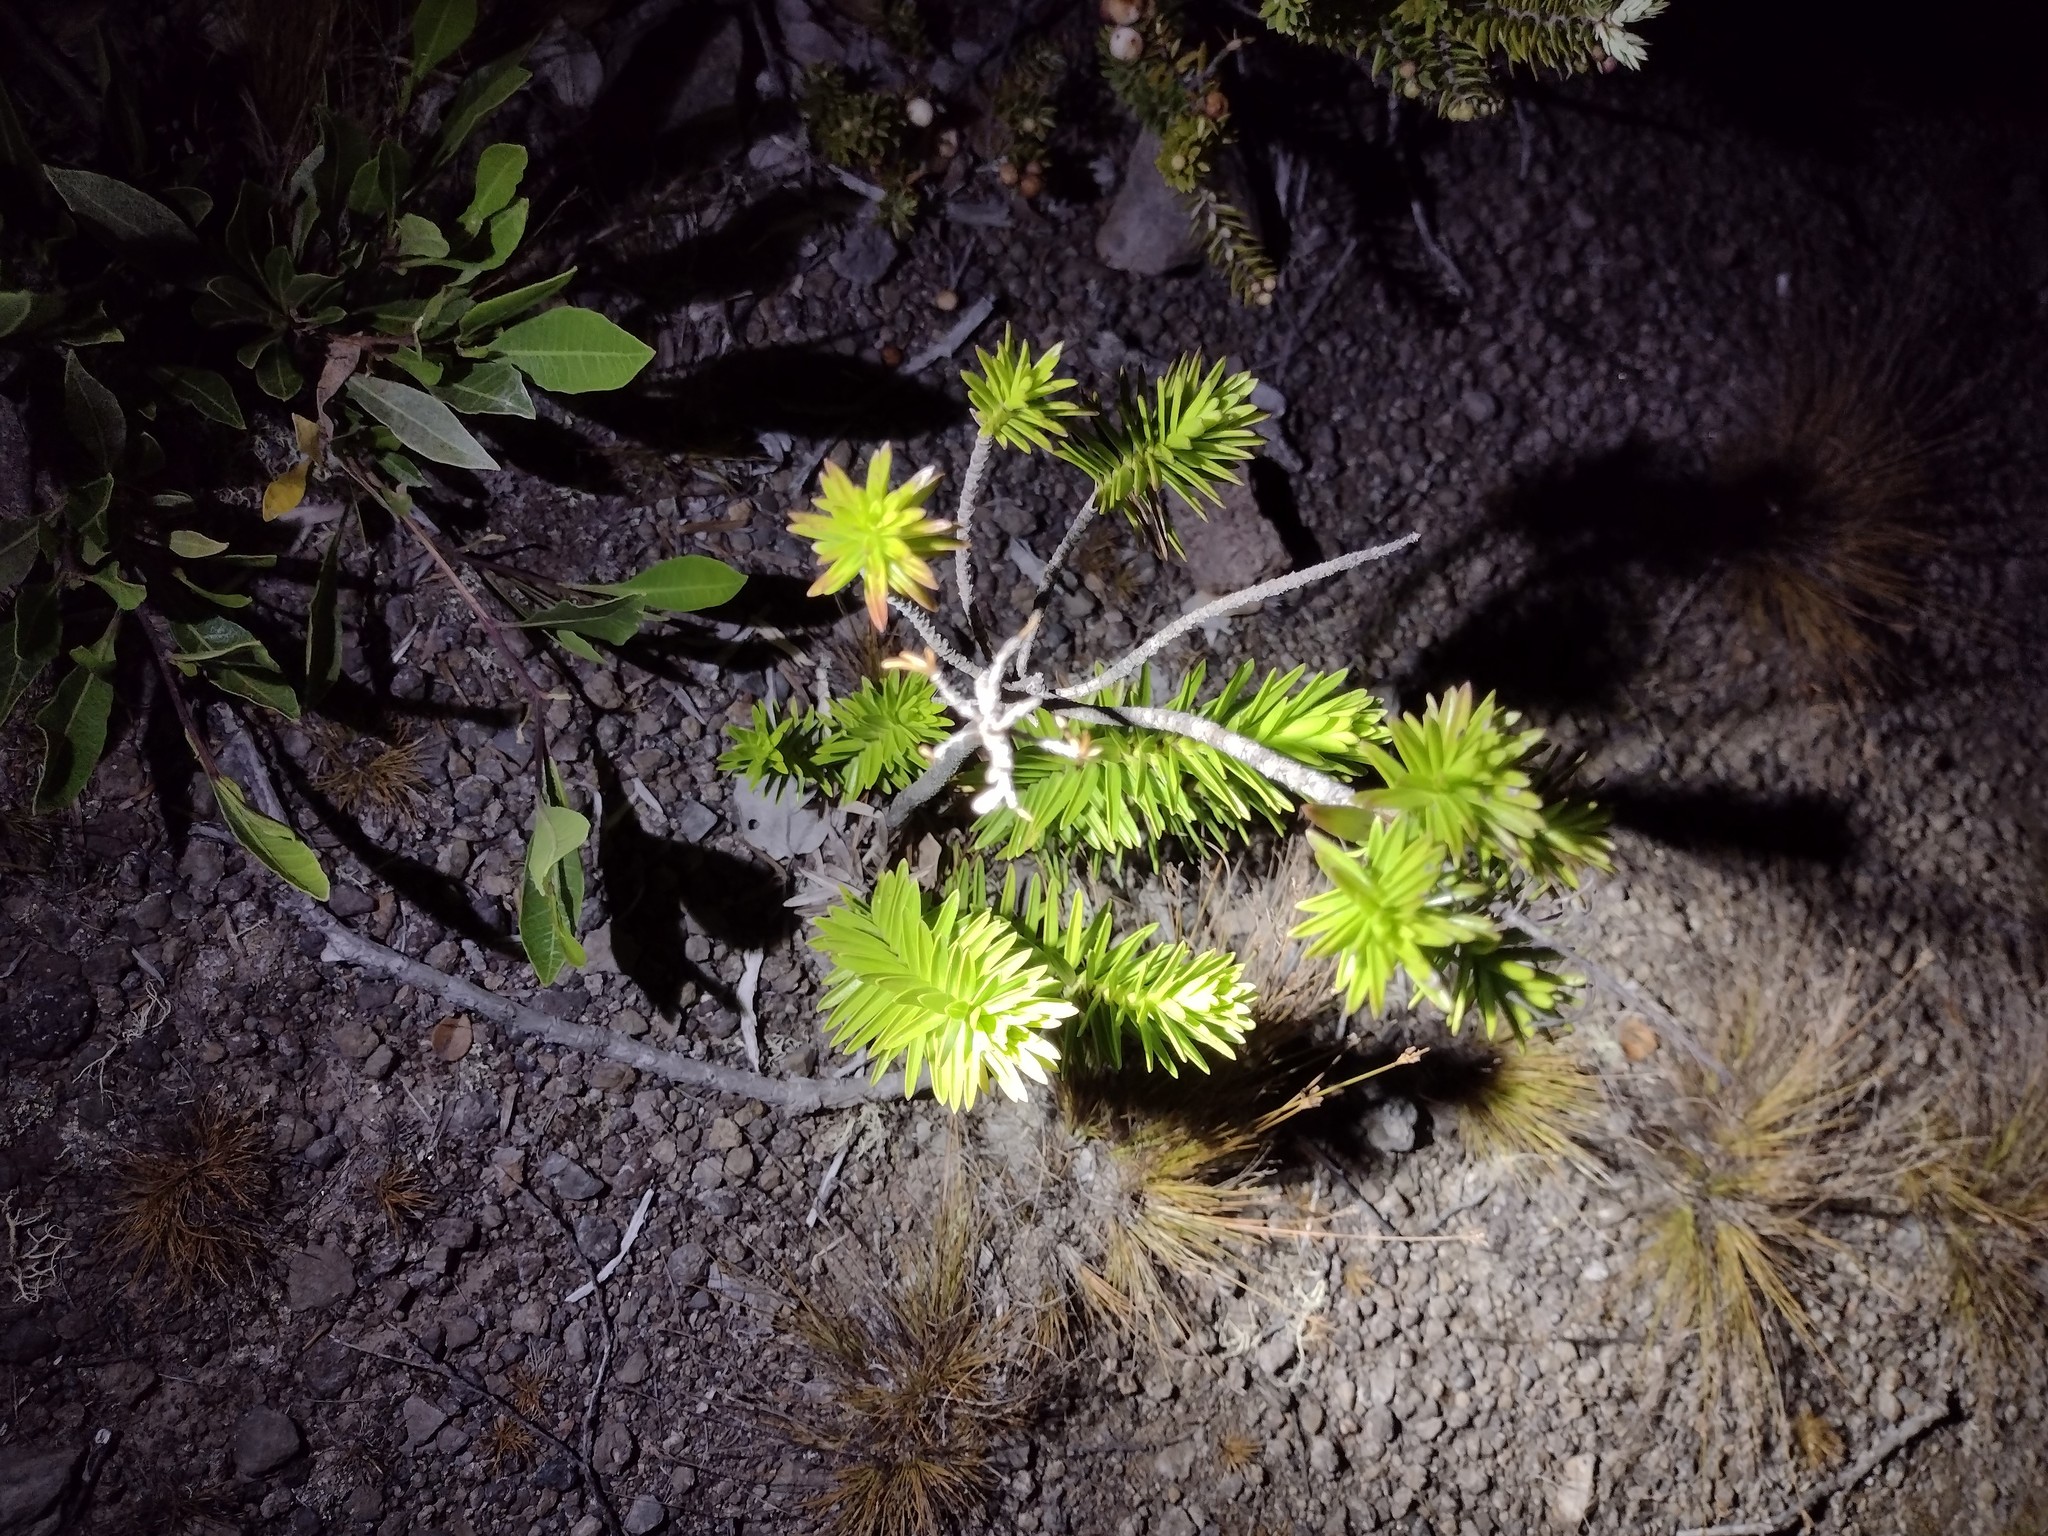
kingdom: Plantae
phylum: Tracheophyta
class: Magnoliopsida
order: Asterales
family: Asteraceae
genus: Dubautia
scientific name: Dubautia ciliolata
